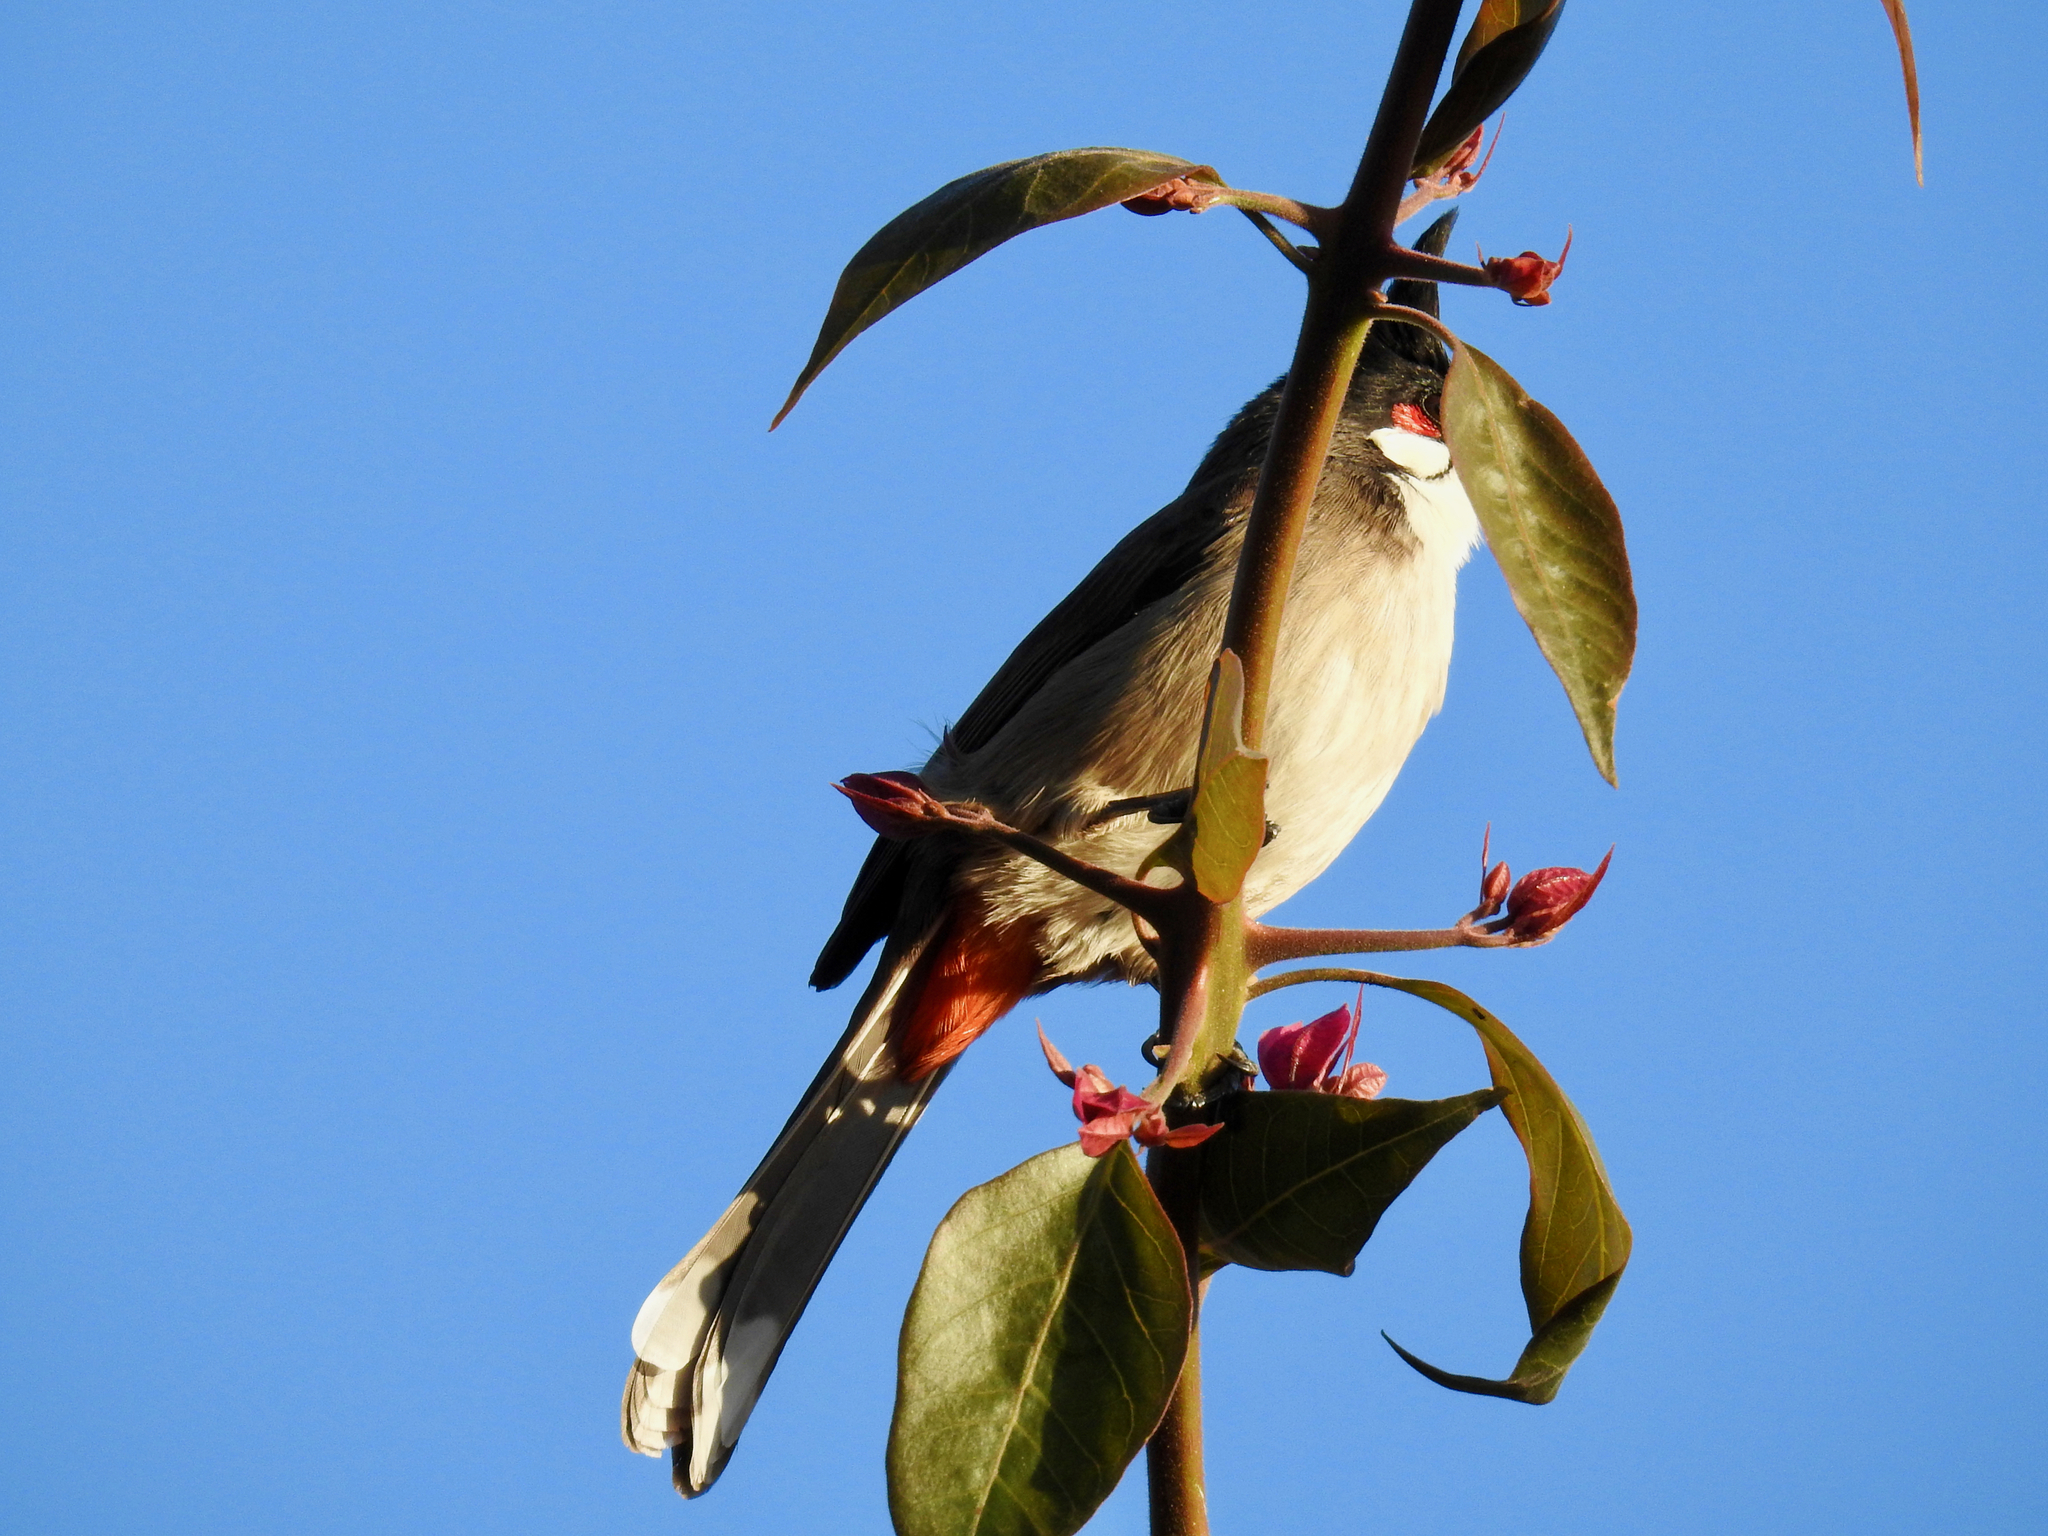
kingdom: Animalia
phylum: Chordata
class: Aves
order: Passeriformes
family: Pycnonotidae
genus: Pycnonotus
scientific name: Pycnonotus jocosus
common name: Red-whiskered bulbul
